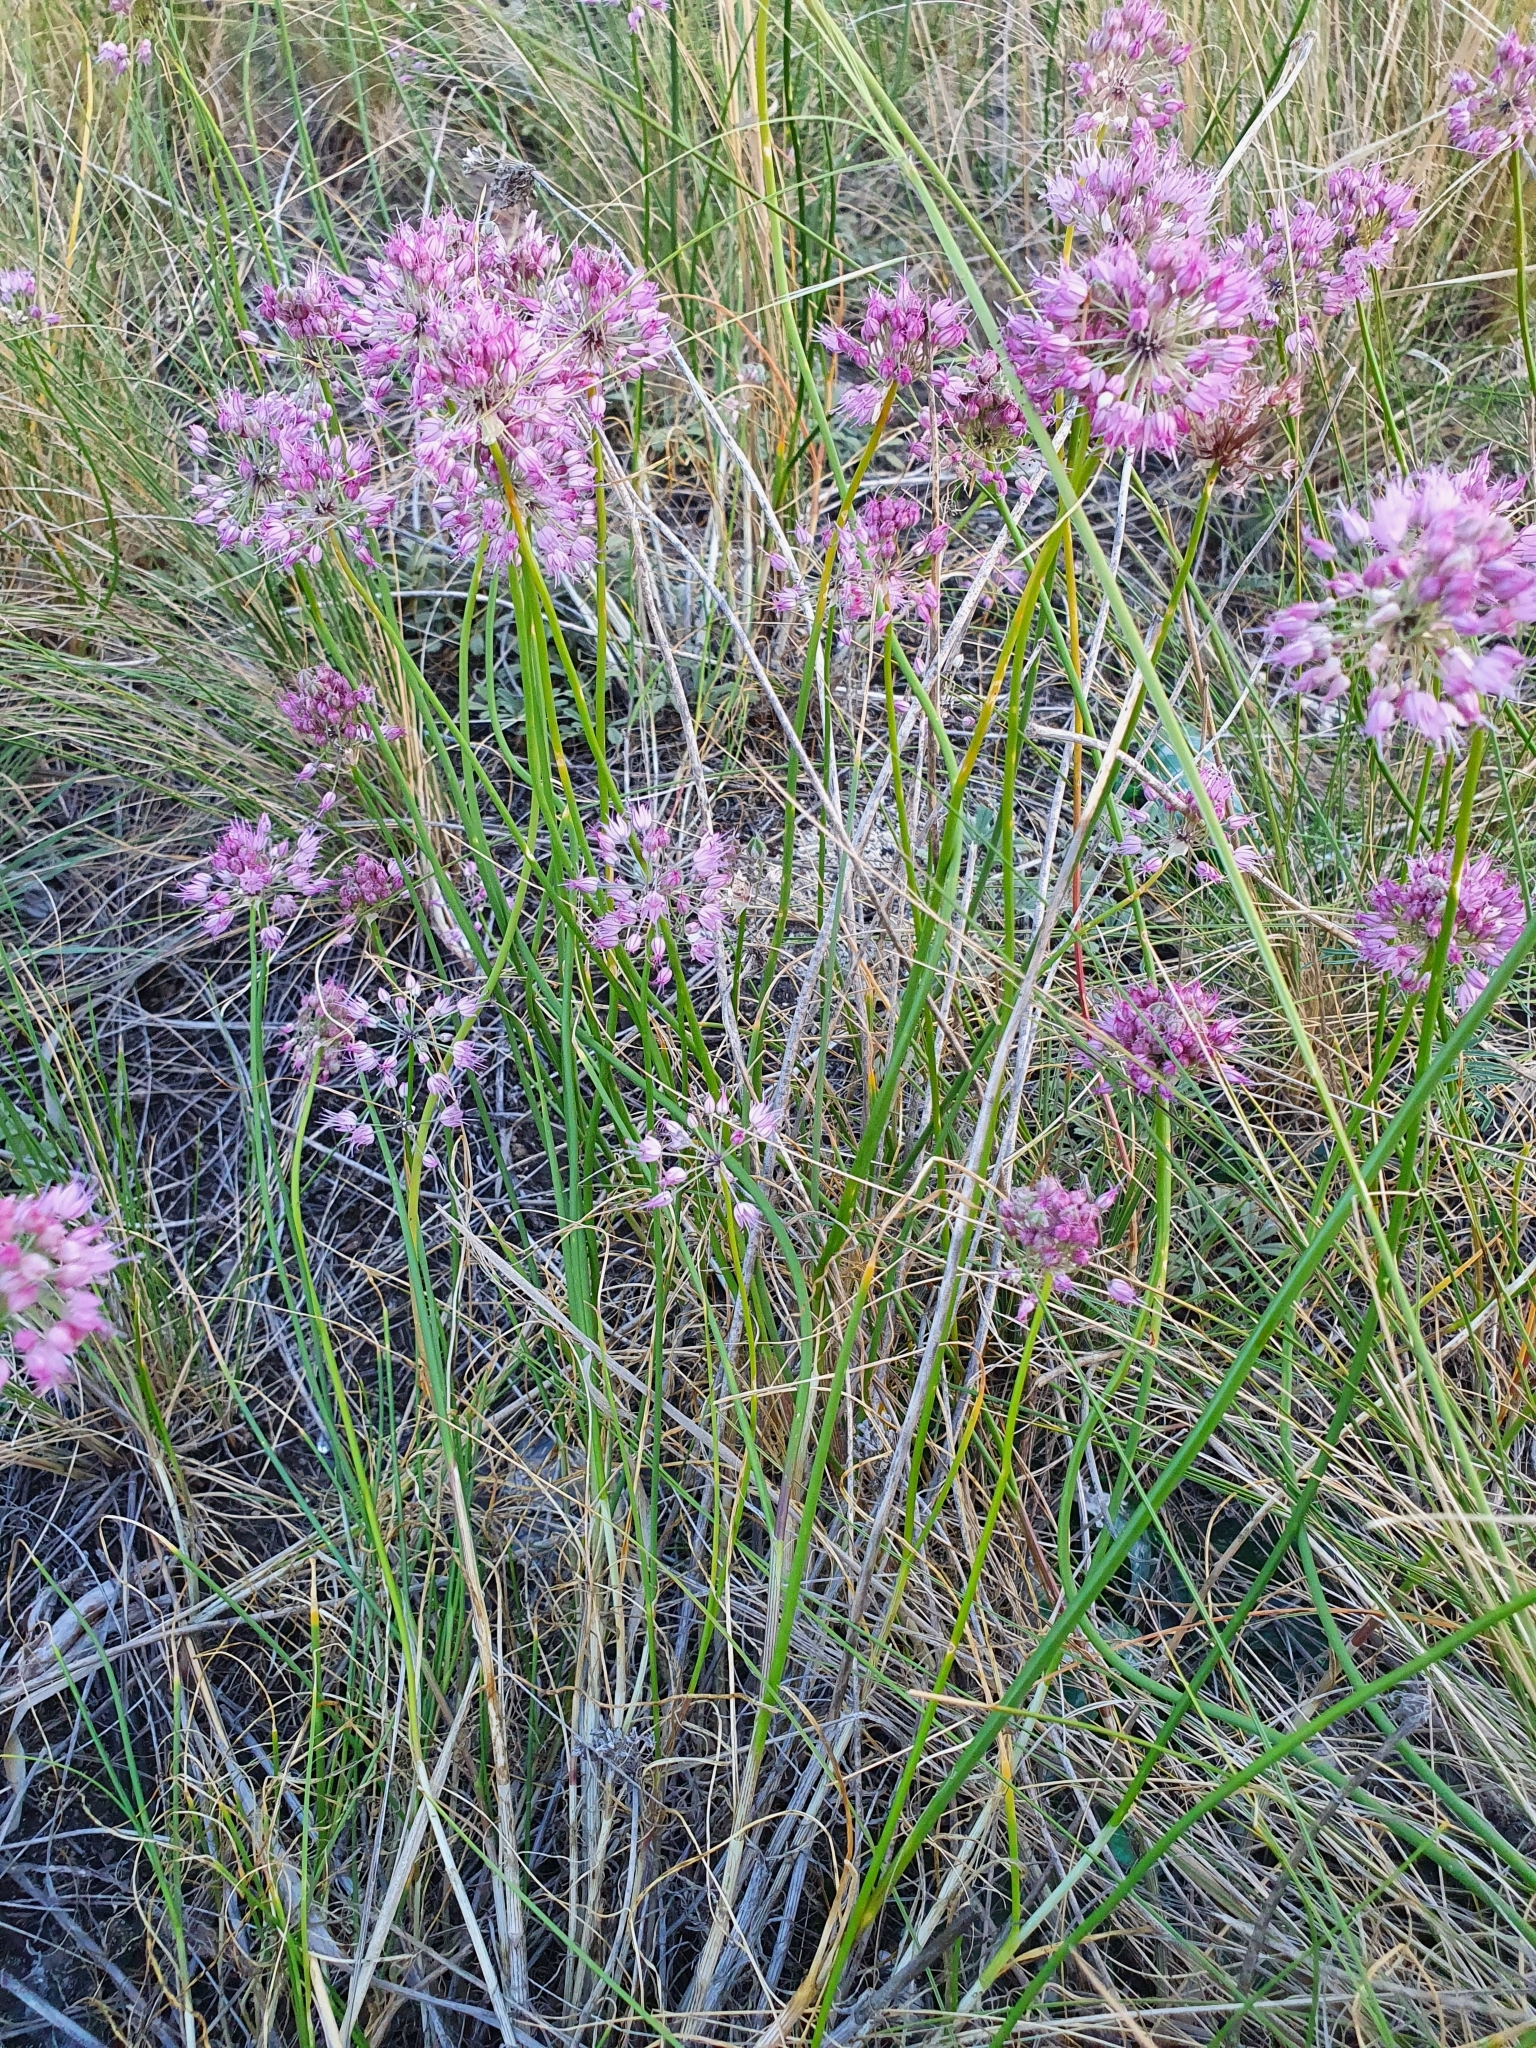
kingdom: Plantae
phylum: Tracheophyta
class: Liliopsida
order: Asparagales
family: Amaryllidaceae
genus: Allium
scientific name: Allium cretaceum
